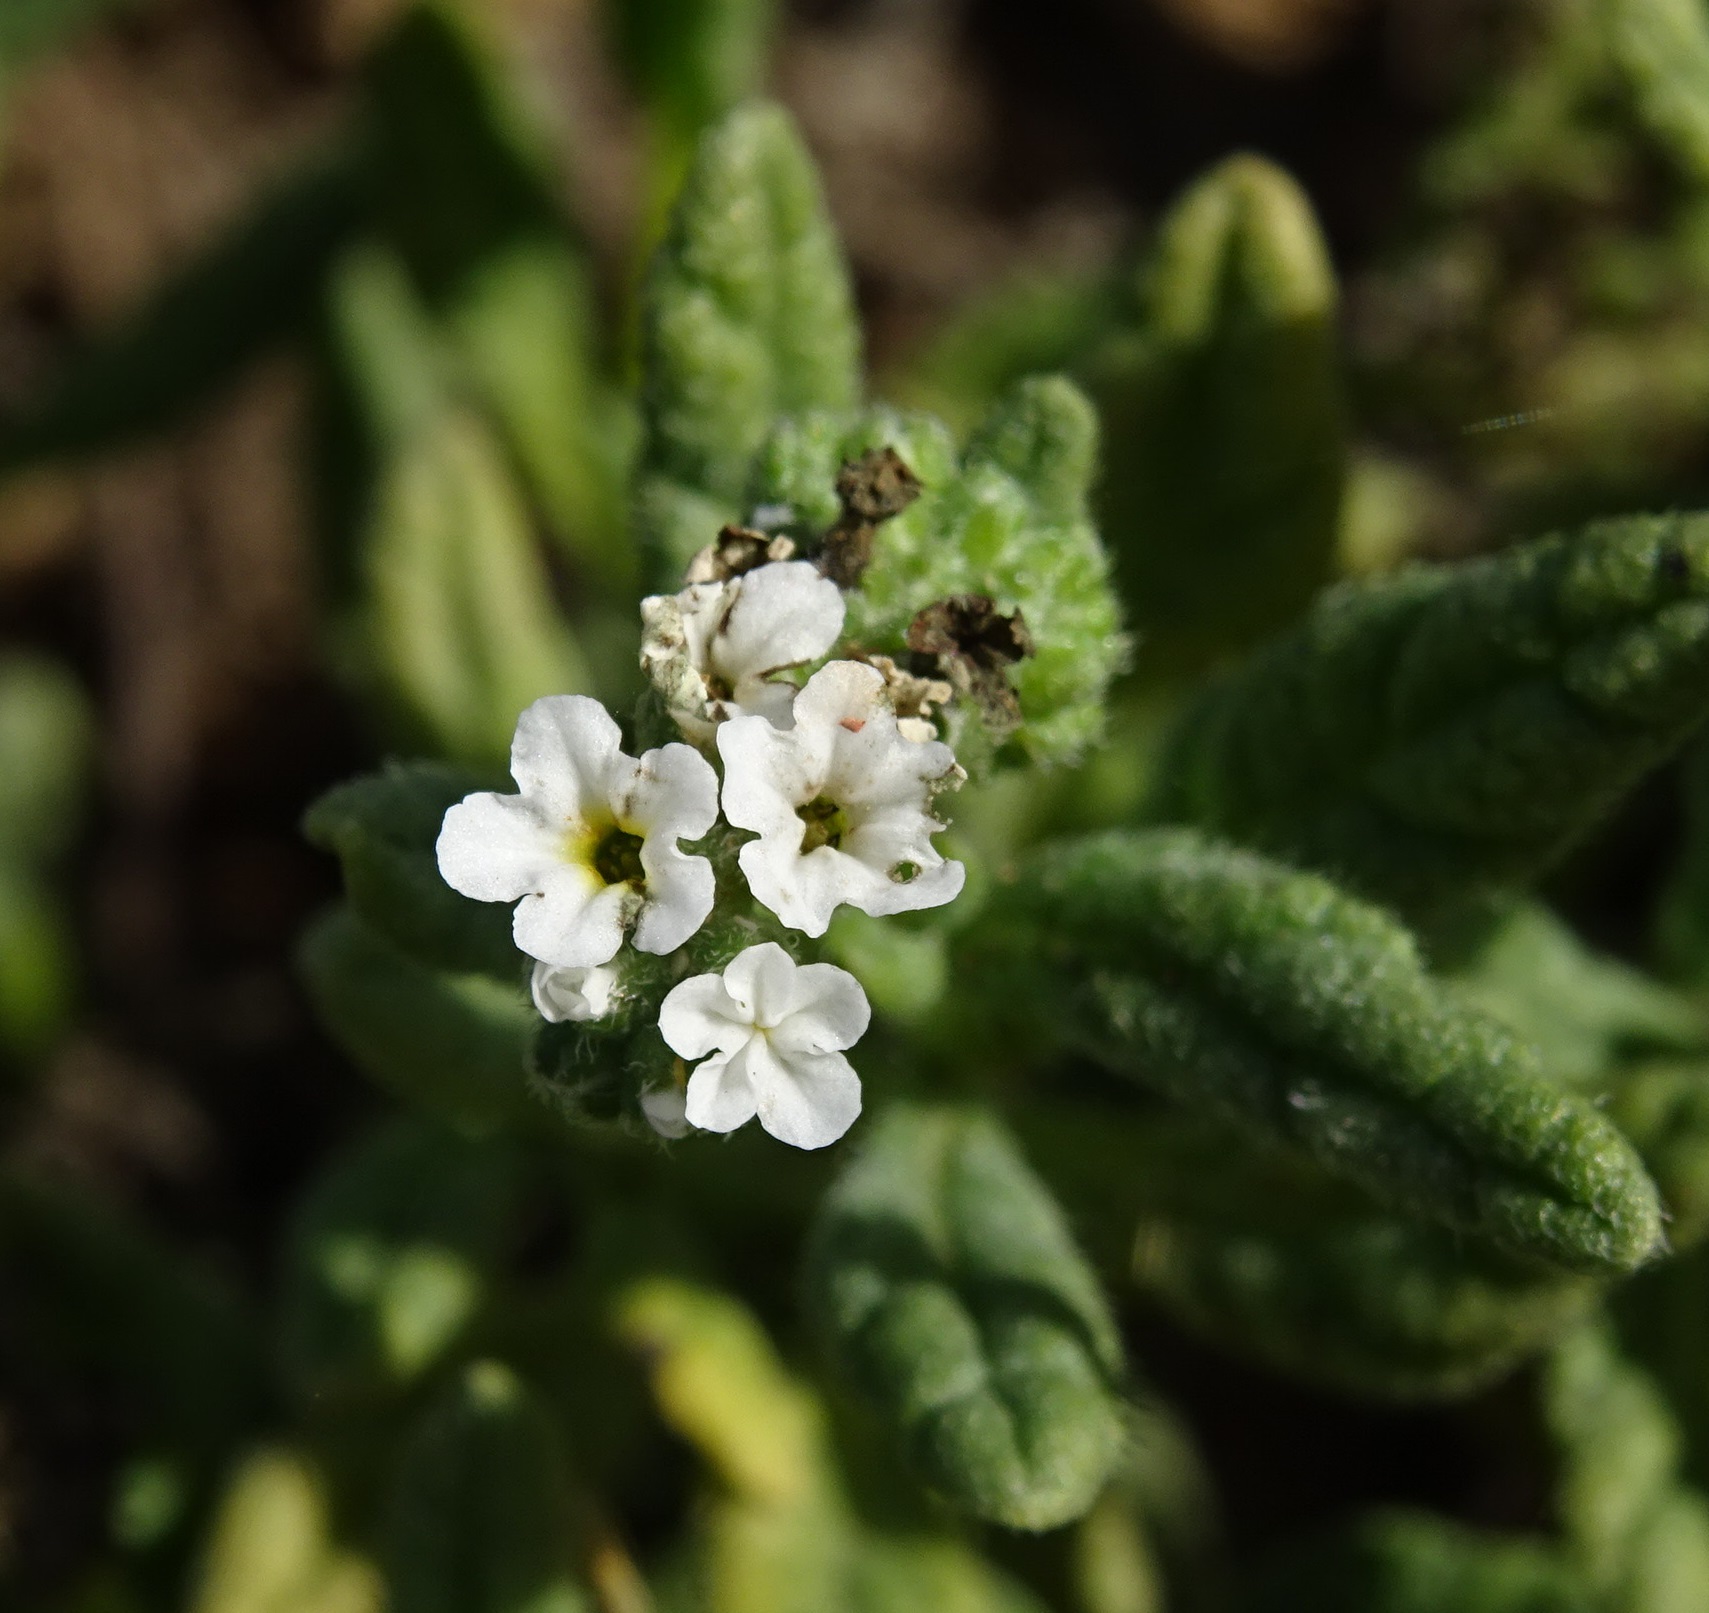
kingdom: Plantae
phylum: Tracheophyta
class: Magnoliopsida
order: Boraginales
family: Heliotropiaceae
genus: Heliotropium
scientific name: Heliotropium ramosissimum
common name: Wavy heliotrope
